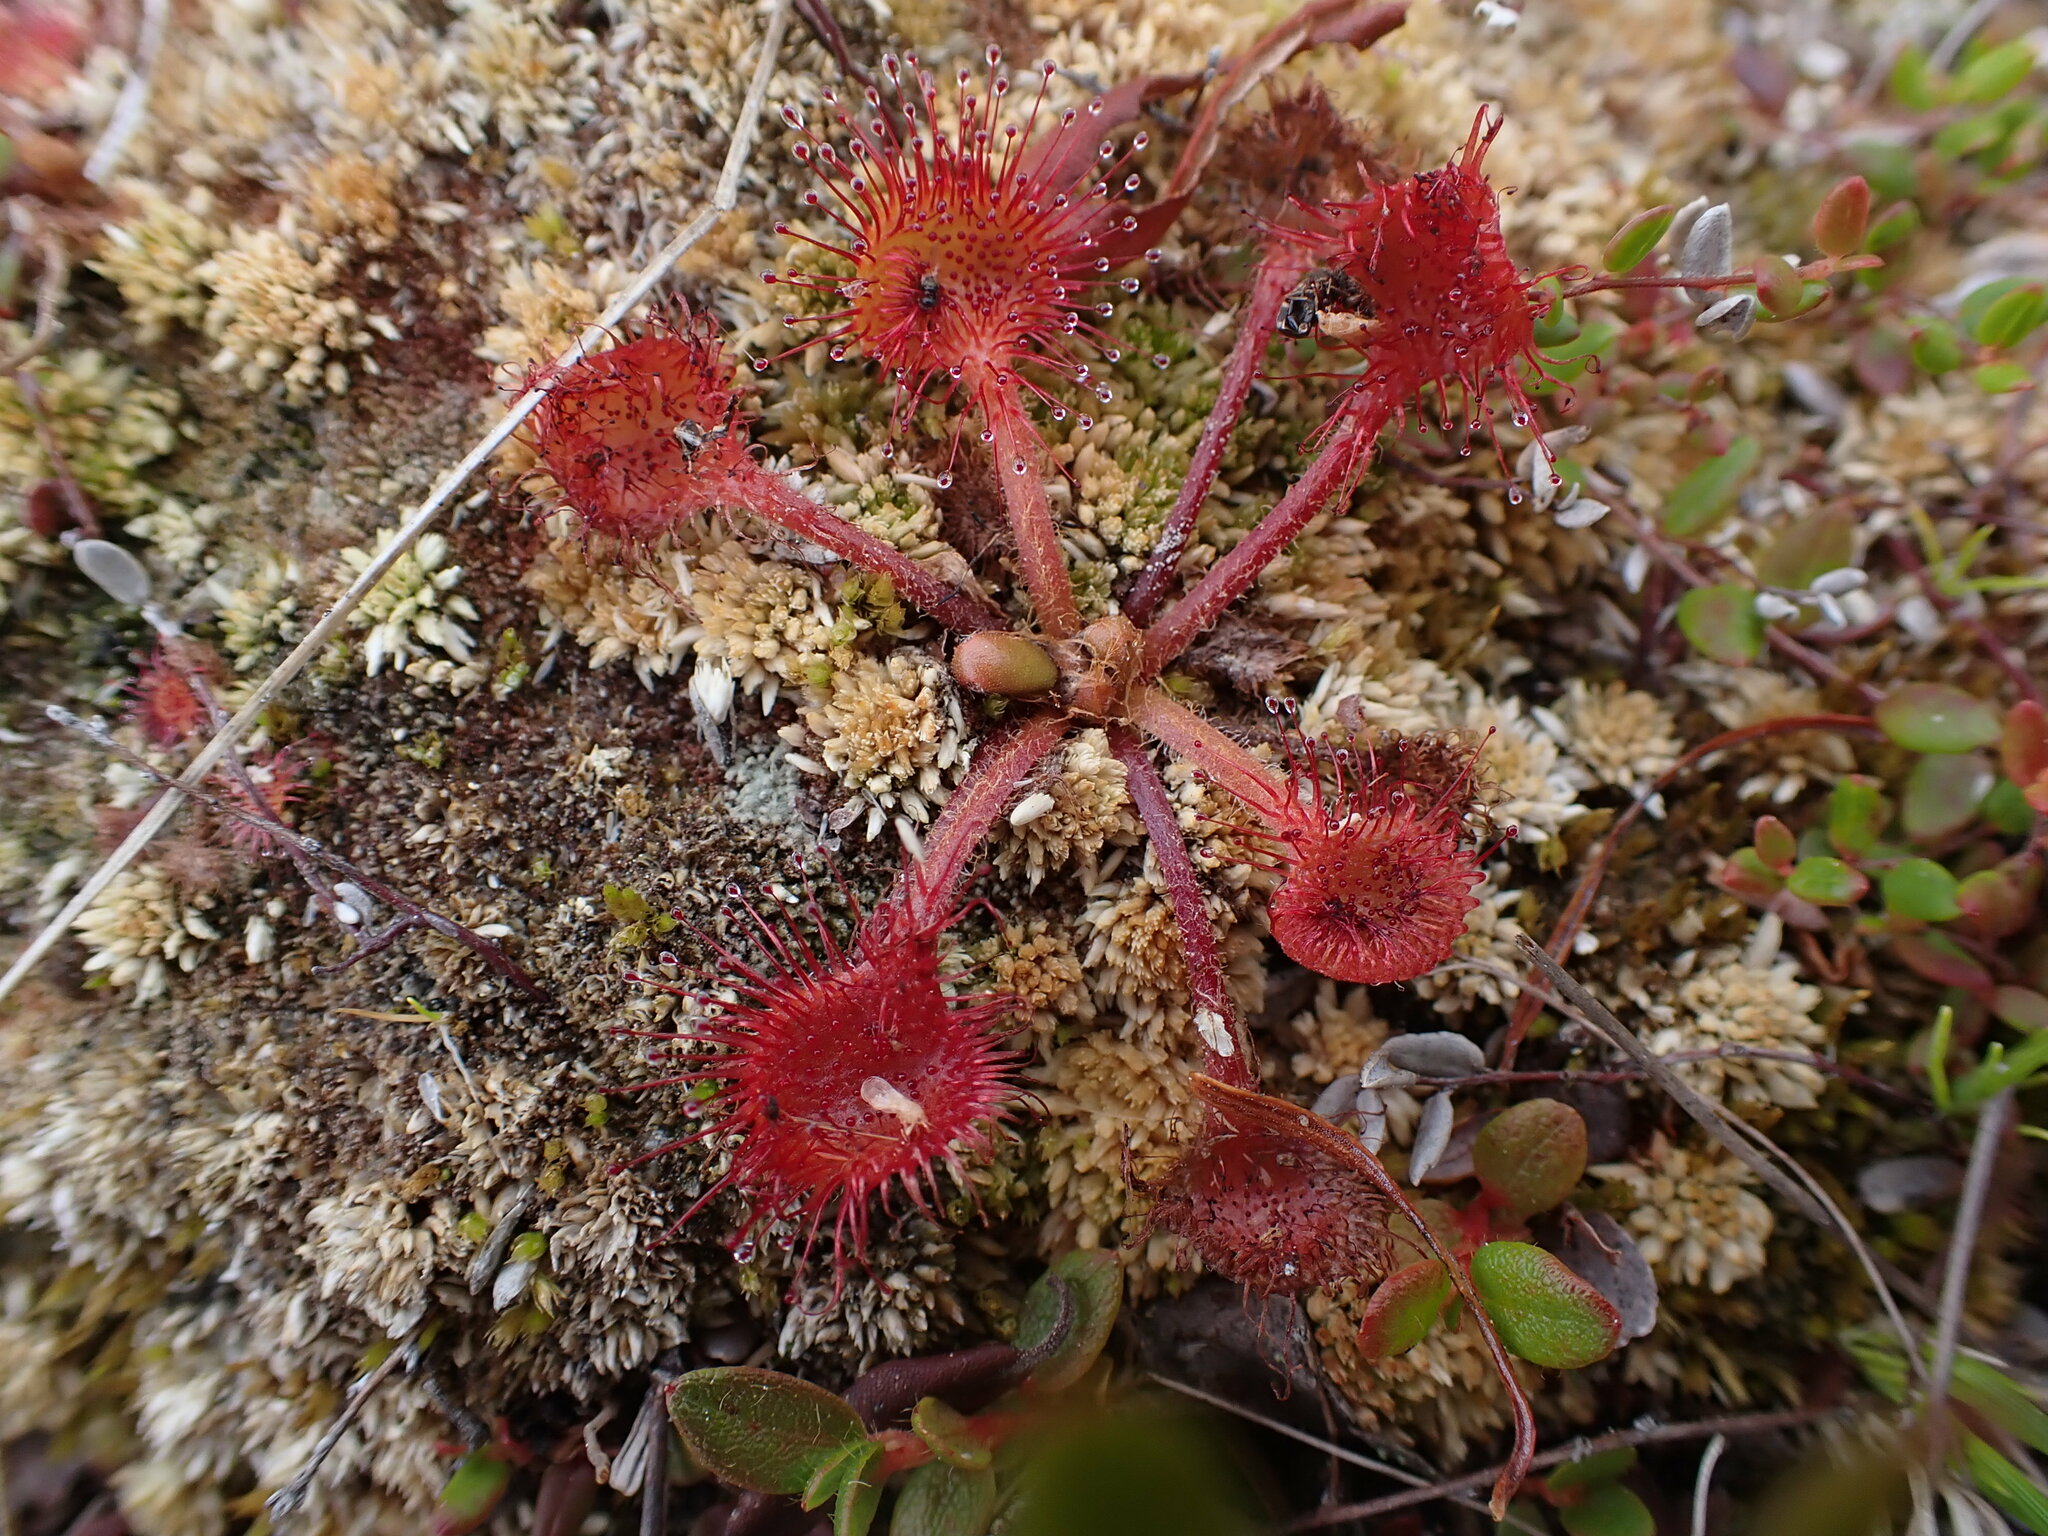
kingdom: Plantae
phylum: Tracheophyta
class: Magnoliopsida
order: Caryophyllales
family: Droseraceae
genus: Drosera
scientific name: Drosera rotundifolia
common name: Round-leaved sundew
